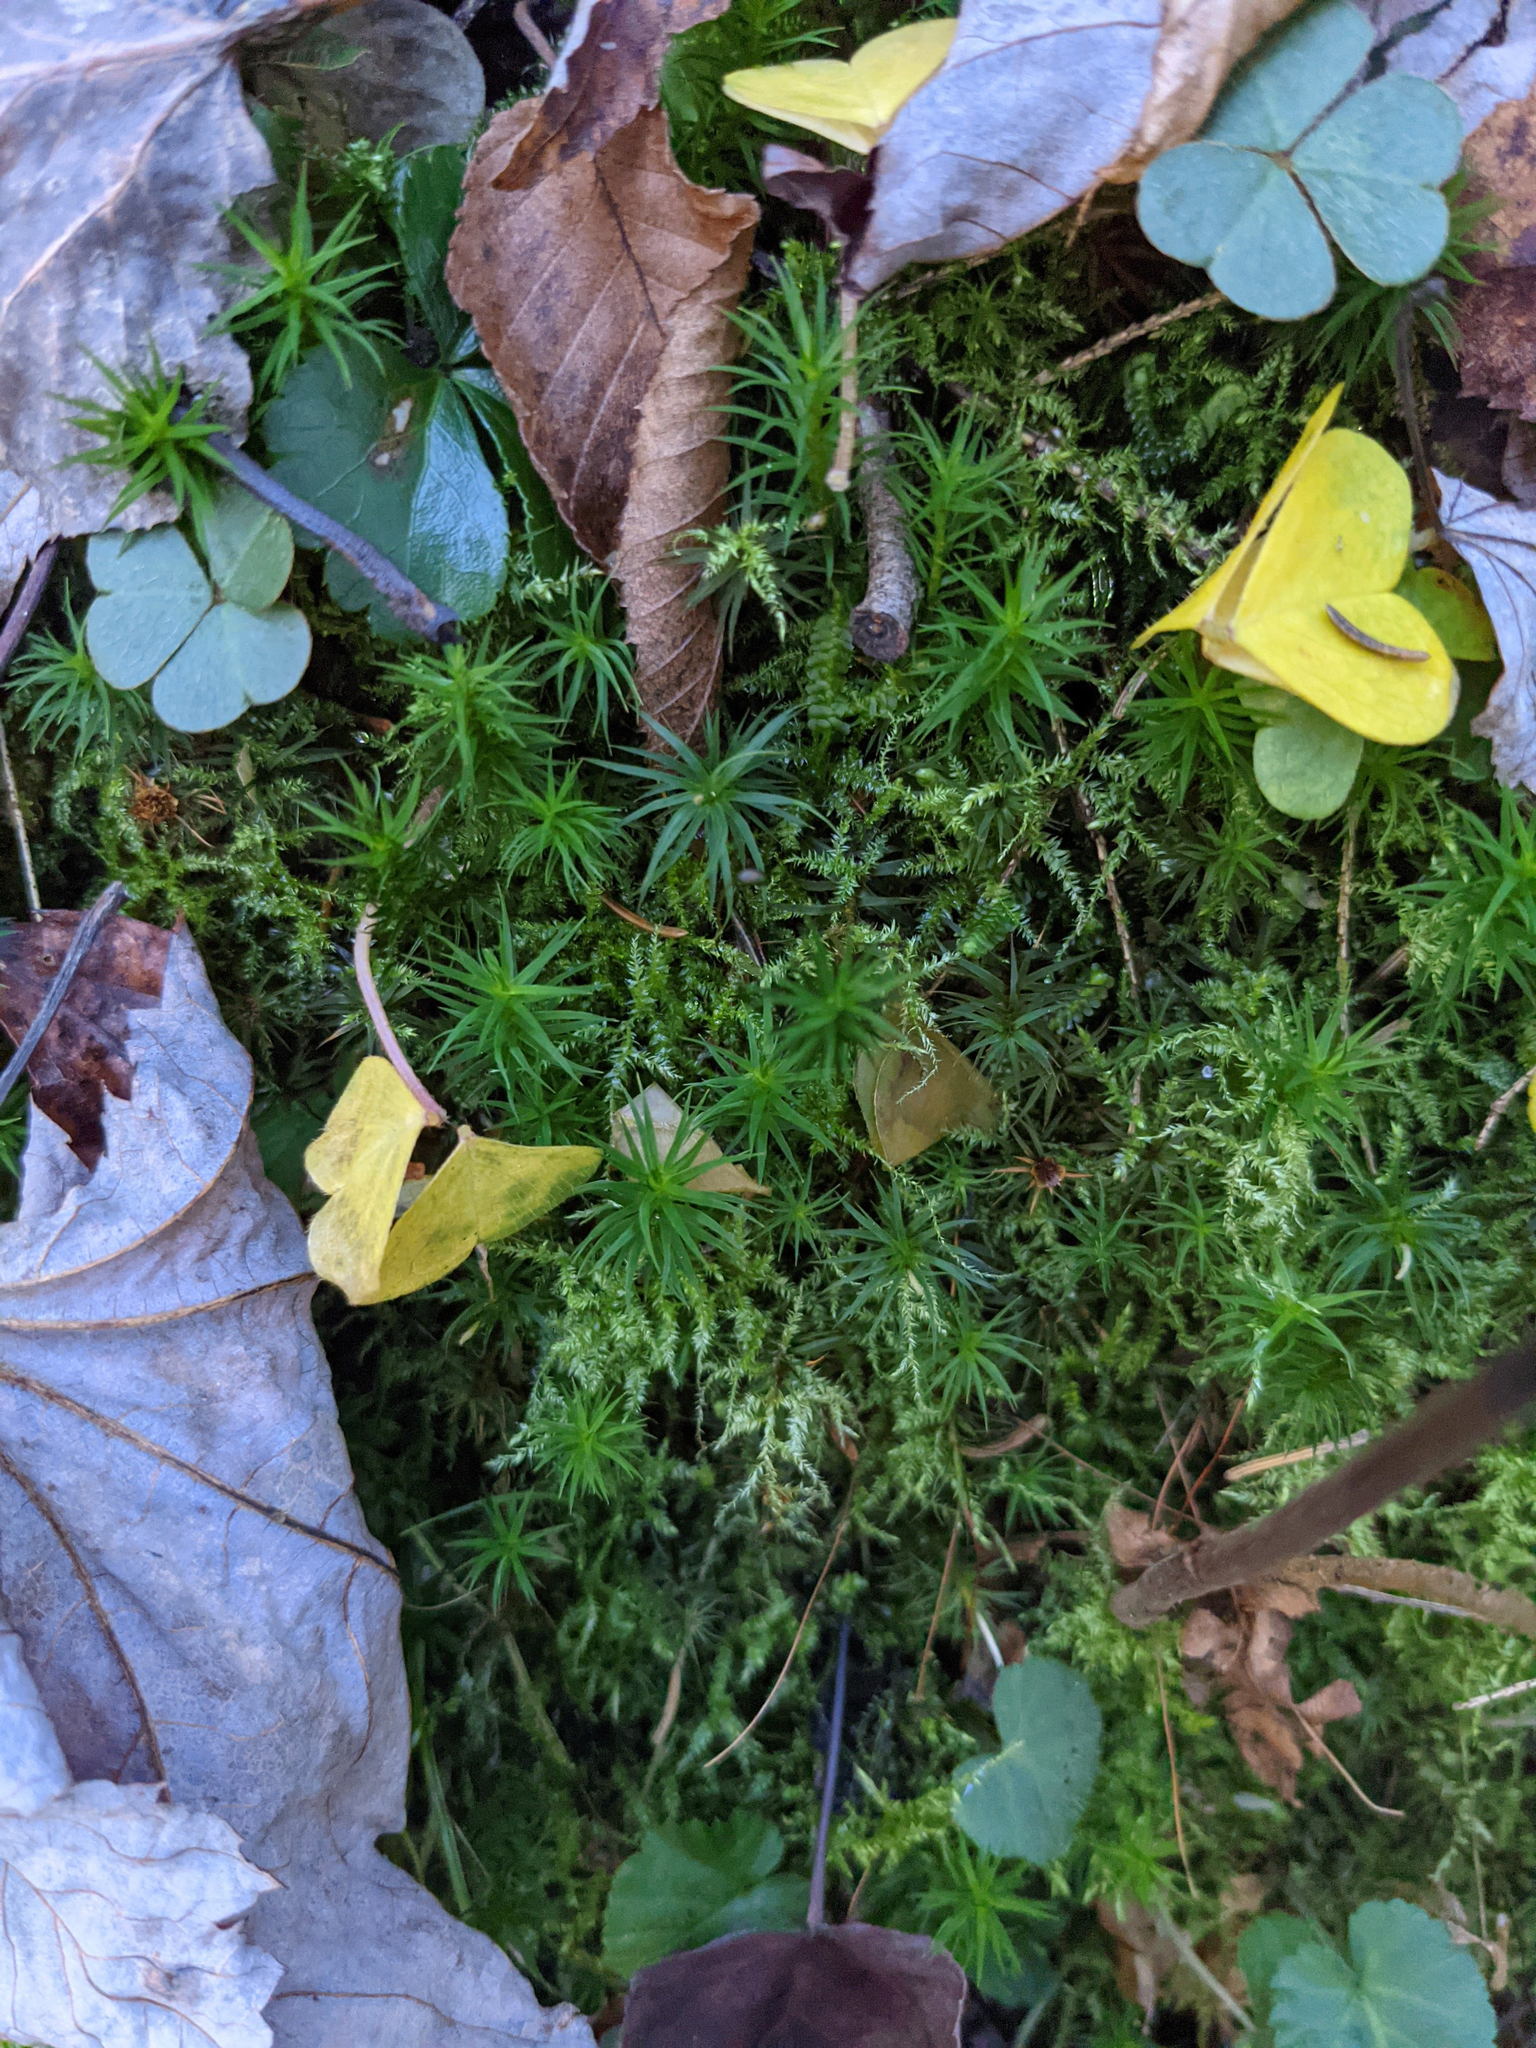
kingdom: Plantae
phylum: Tracheophyta
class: Magnoliopsida
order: Oxalidales
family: Oxalidaceae
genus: Oxalis
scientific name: Oxalis montana
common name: American wood-sorrel
